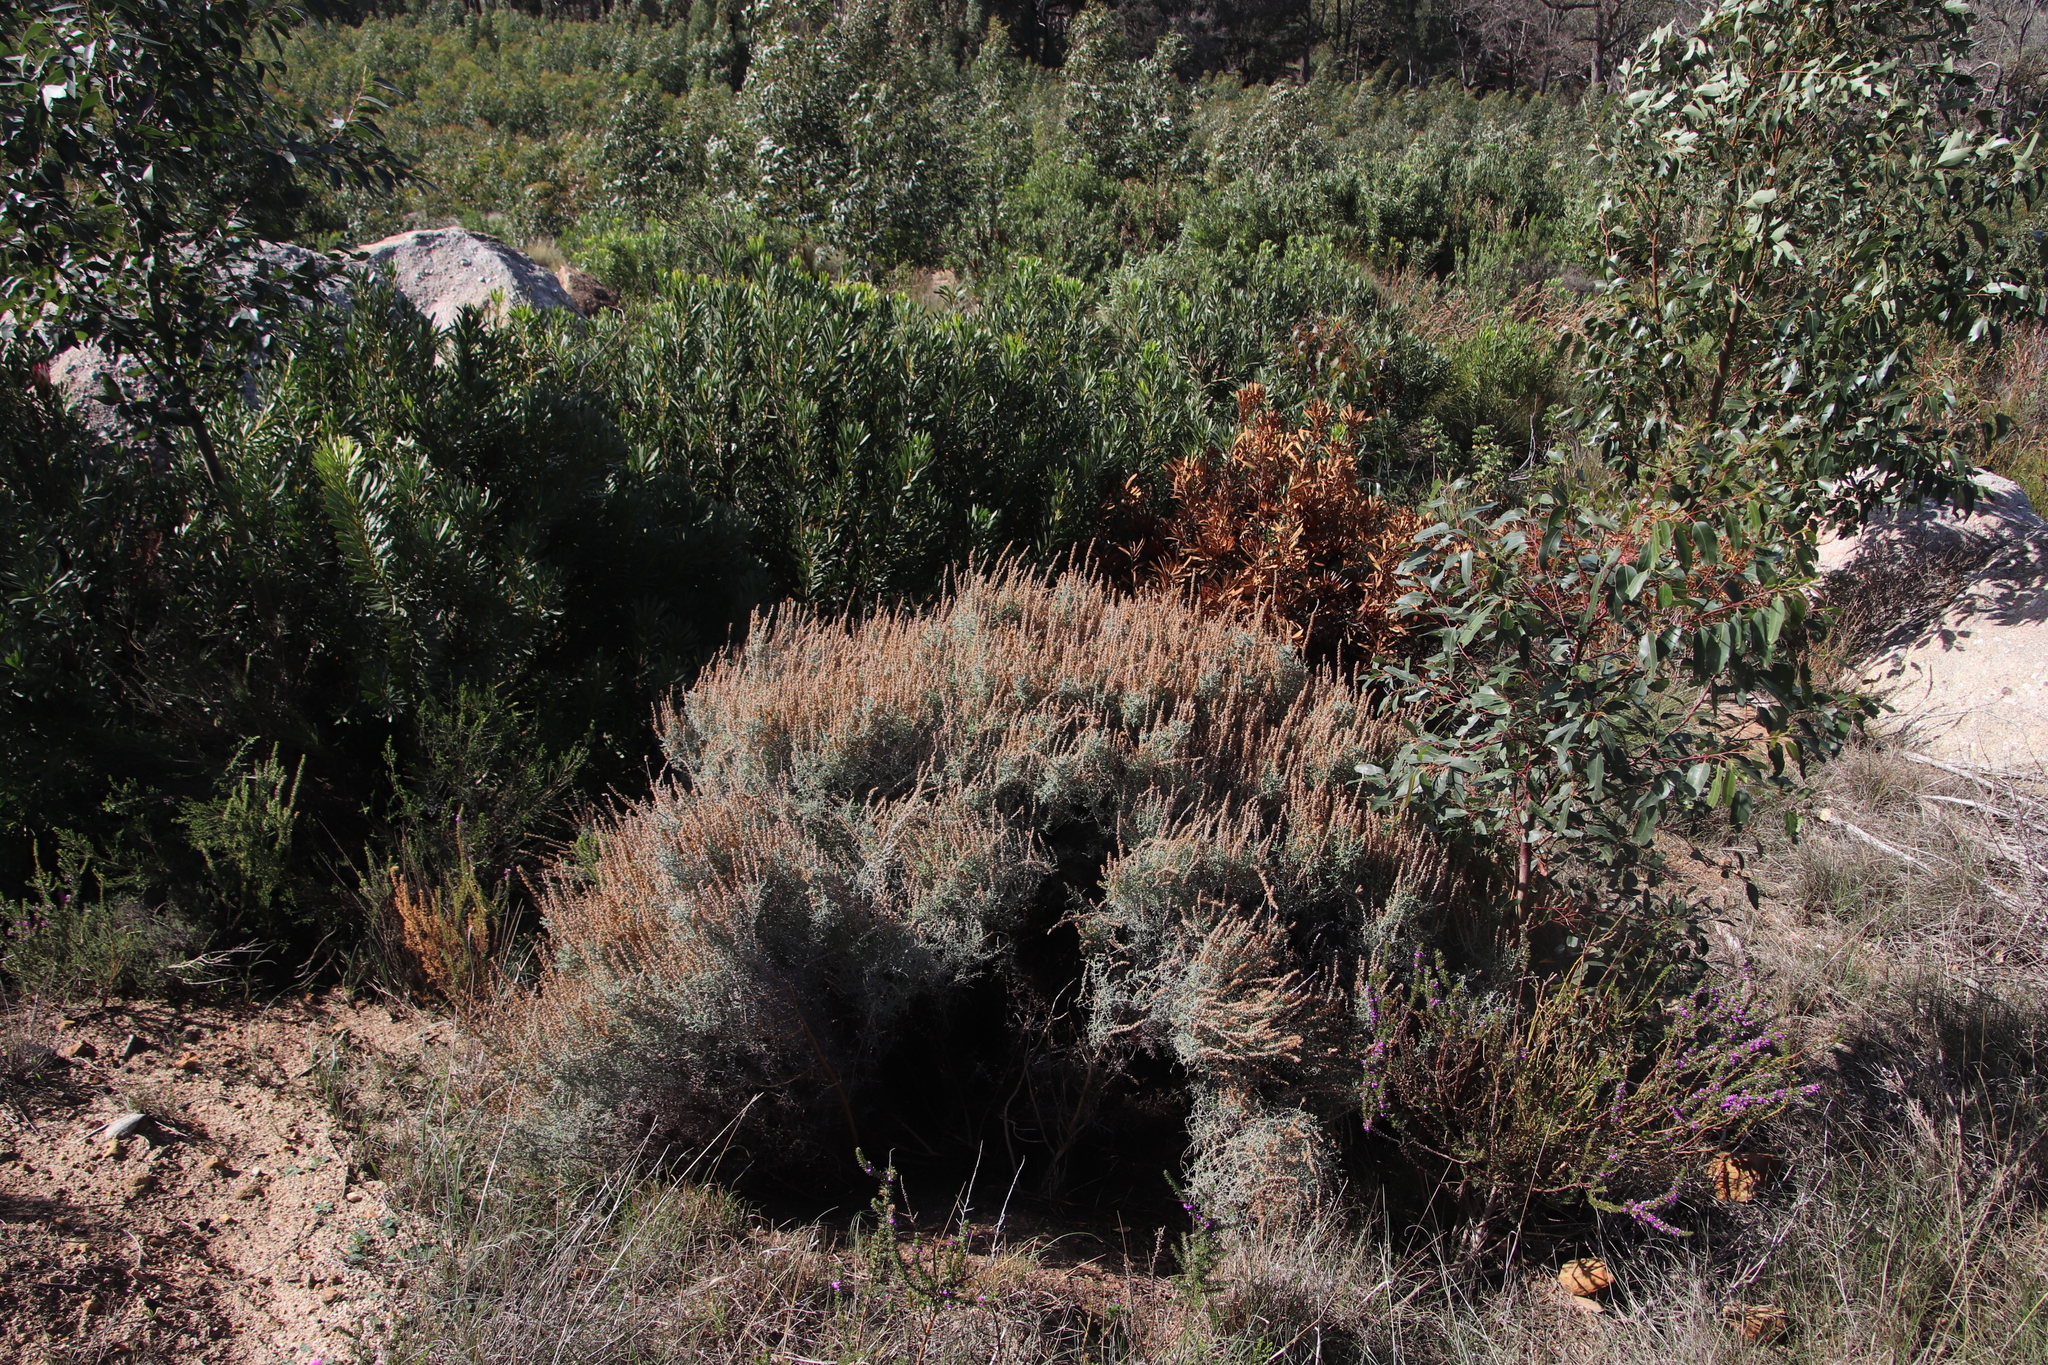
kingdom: Plantae
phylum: Tracheophyta
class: Magnoliopsida
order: Asterales
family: Asteraceae
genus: Seriphium
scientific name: Seriphium plumosum
